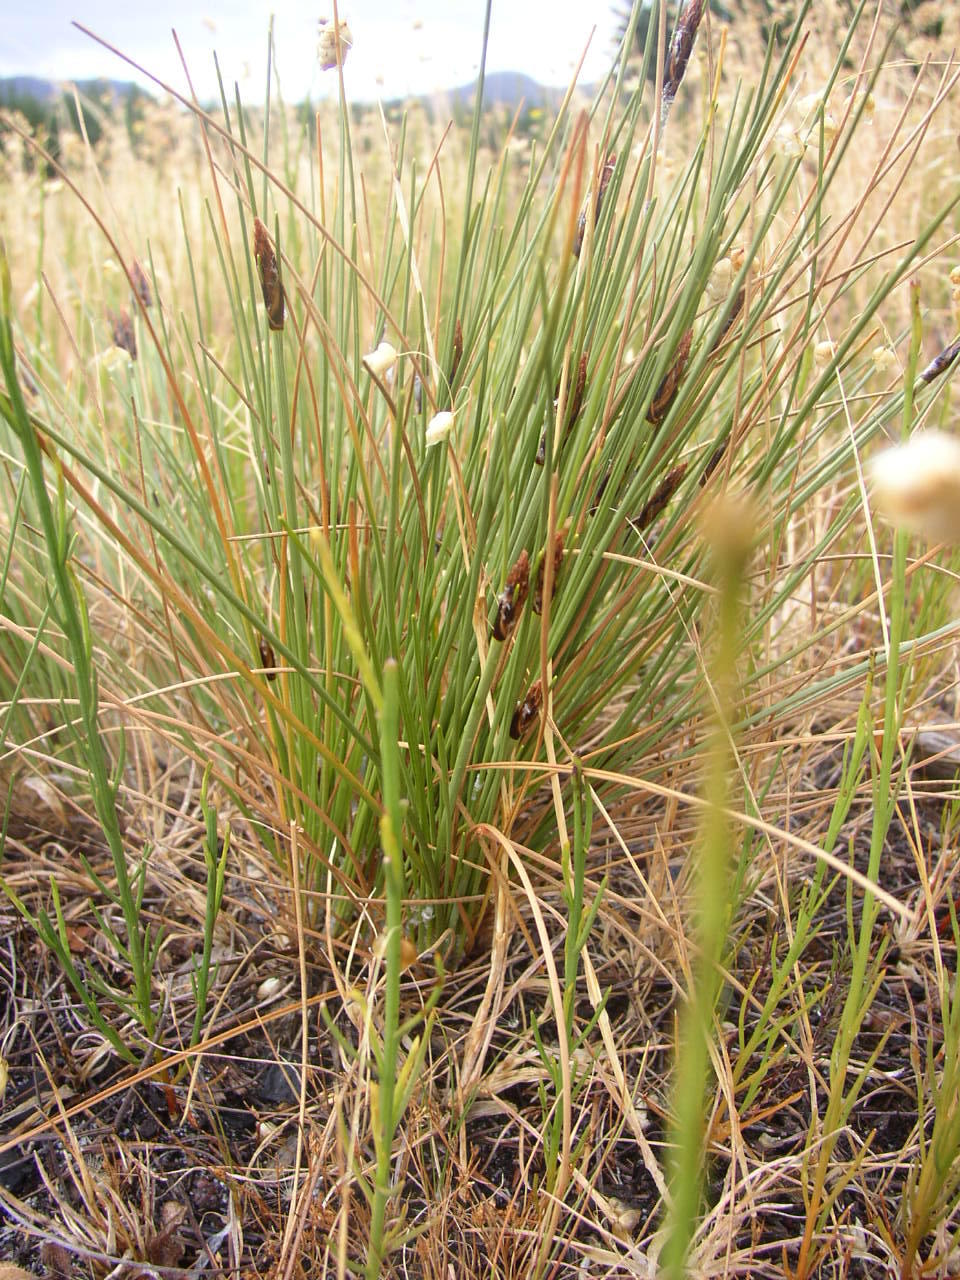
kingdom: Plantae
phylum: Tracheophyta
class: Liliopsida
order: Poales
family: Cyperaceae
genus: Ficinia
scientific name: Ficinia deusta
